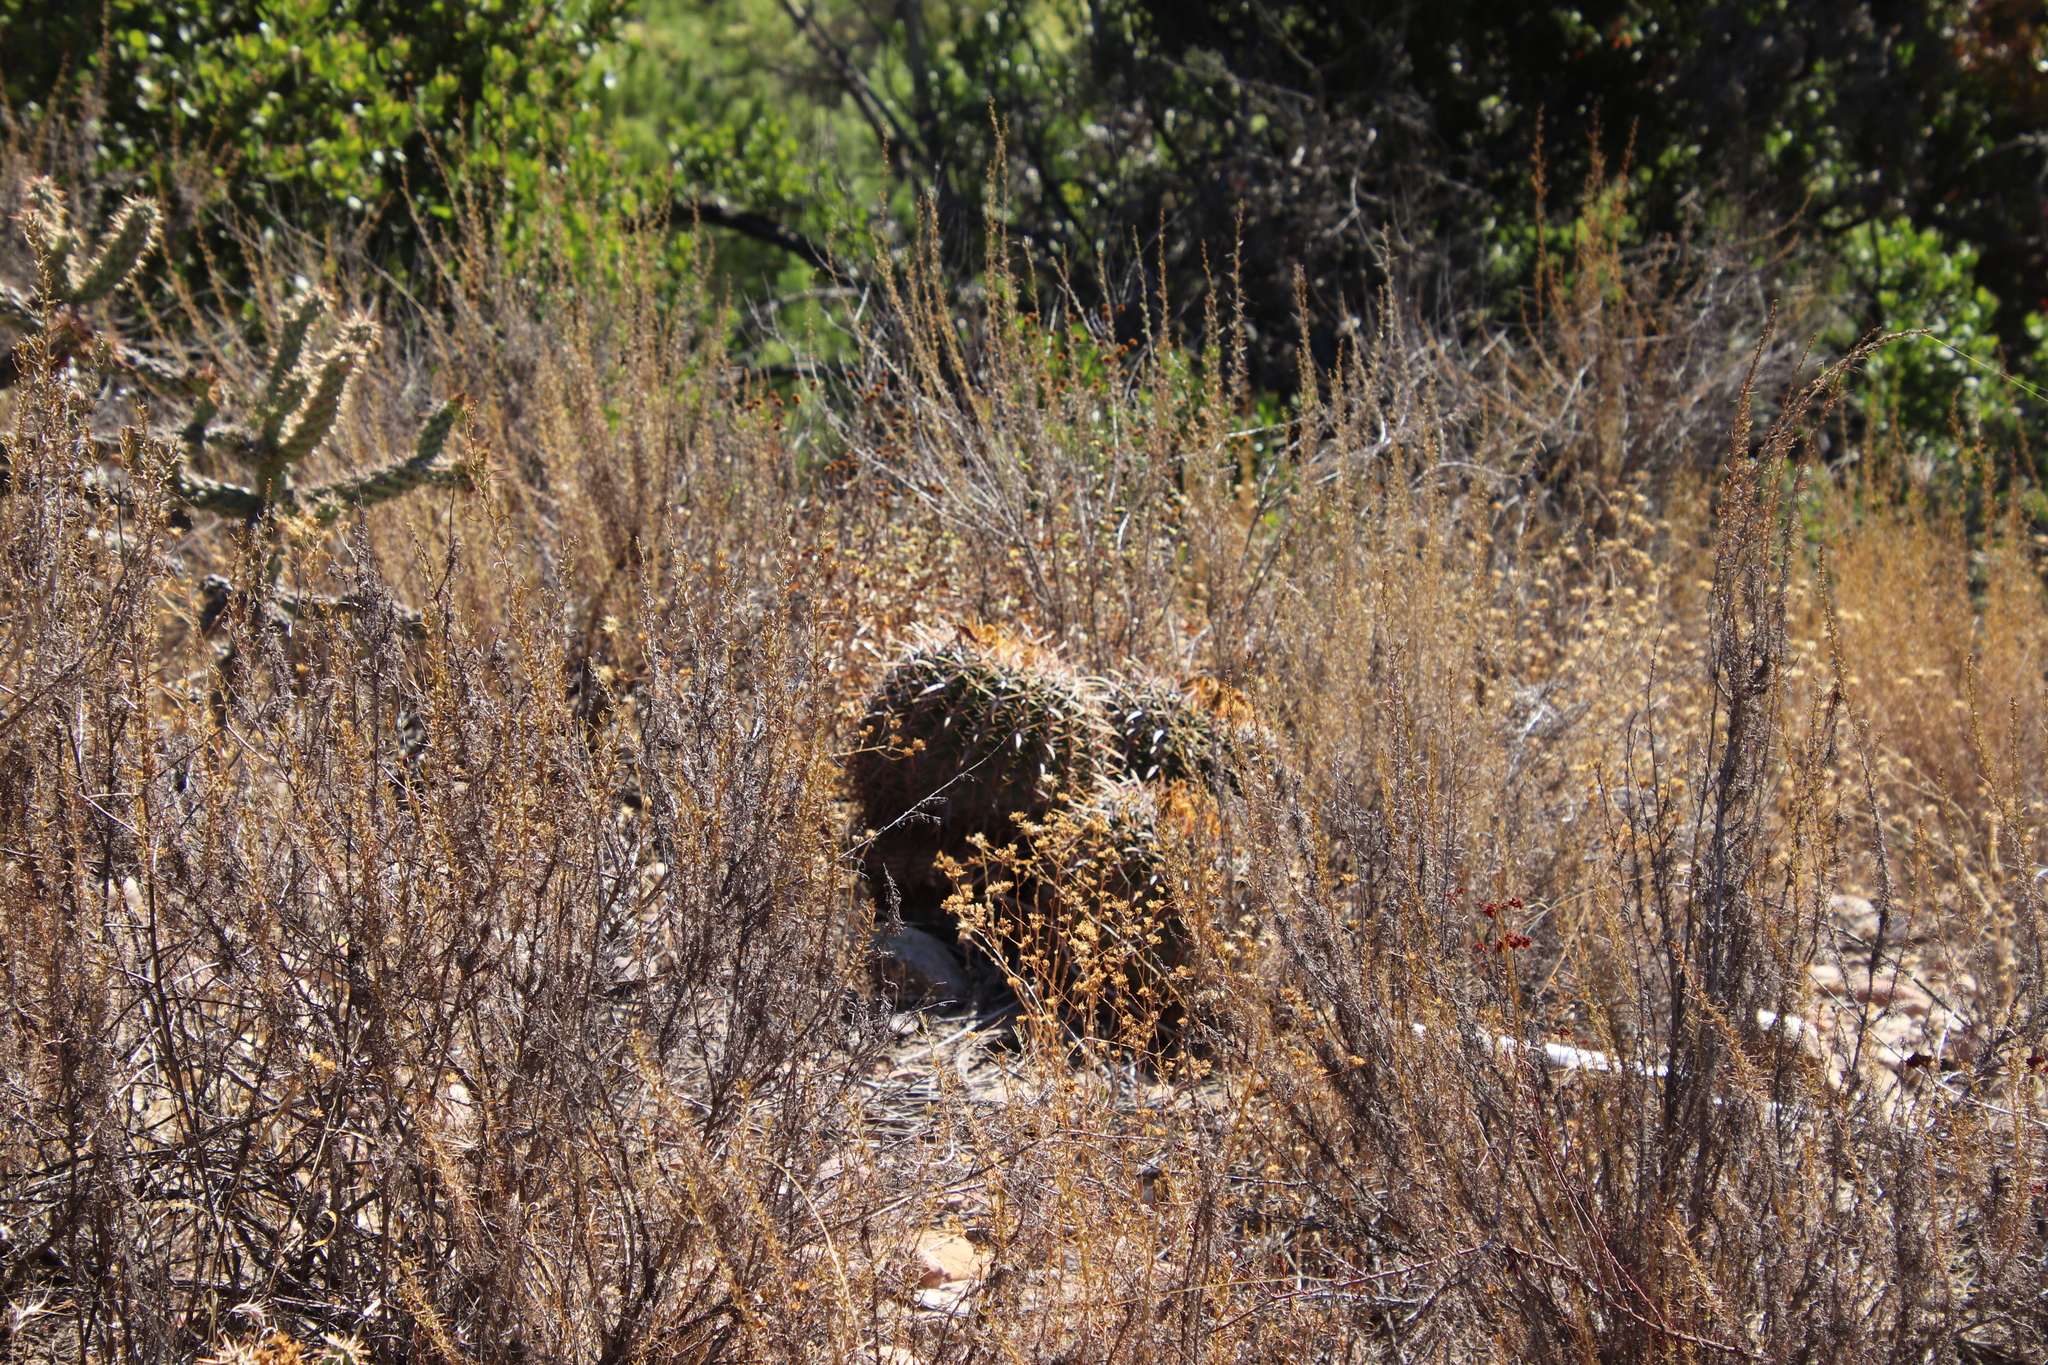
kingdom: Plantae
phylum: Tracheophyta
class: Magnoliopsida
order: Caryophyllales
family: Cactaceae
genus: Ferocactus
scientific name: Ferocactus viridescens
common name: San diego barrel cactus
